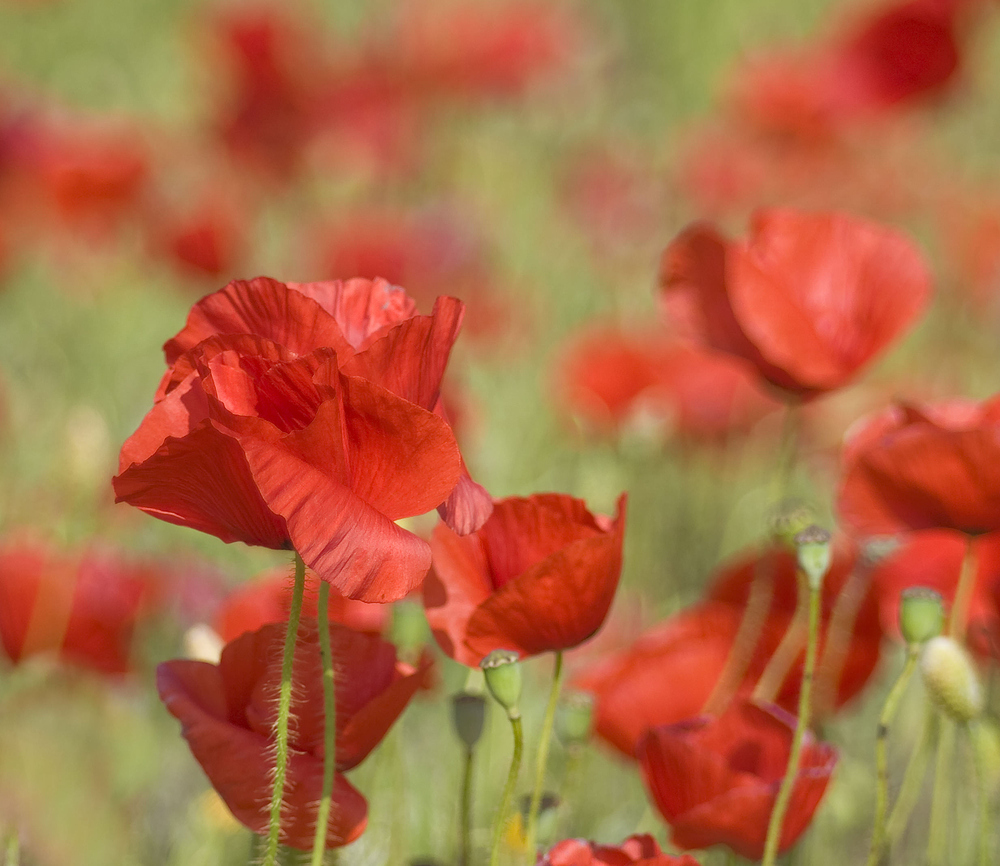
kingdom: Plantae
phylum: Tracheophyta
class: Magnoliopsida
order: Ranunculales
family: Papaveraceae
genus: Papaver
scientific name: Papaver rhoeas
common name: Corn poppy
